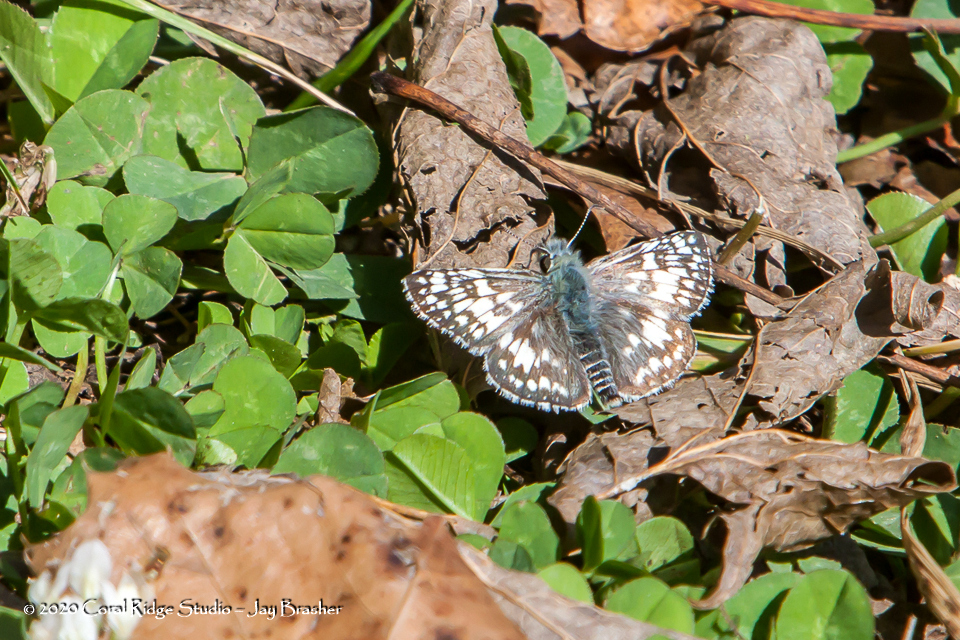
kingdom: Animalia
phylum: Arthropoda
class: Insecta
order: Lepidoptera
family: Hesperiidae
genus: Burnsius
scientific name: Burnsius communis
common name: Common checkered-skipper
